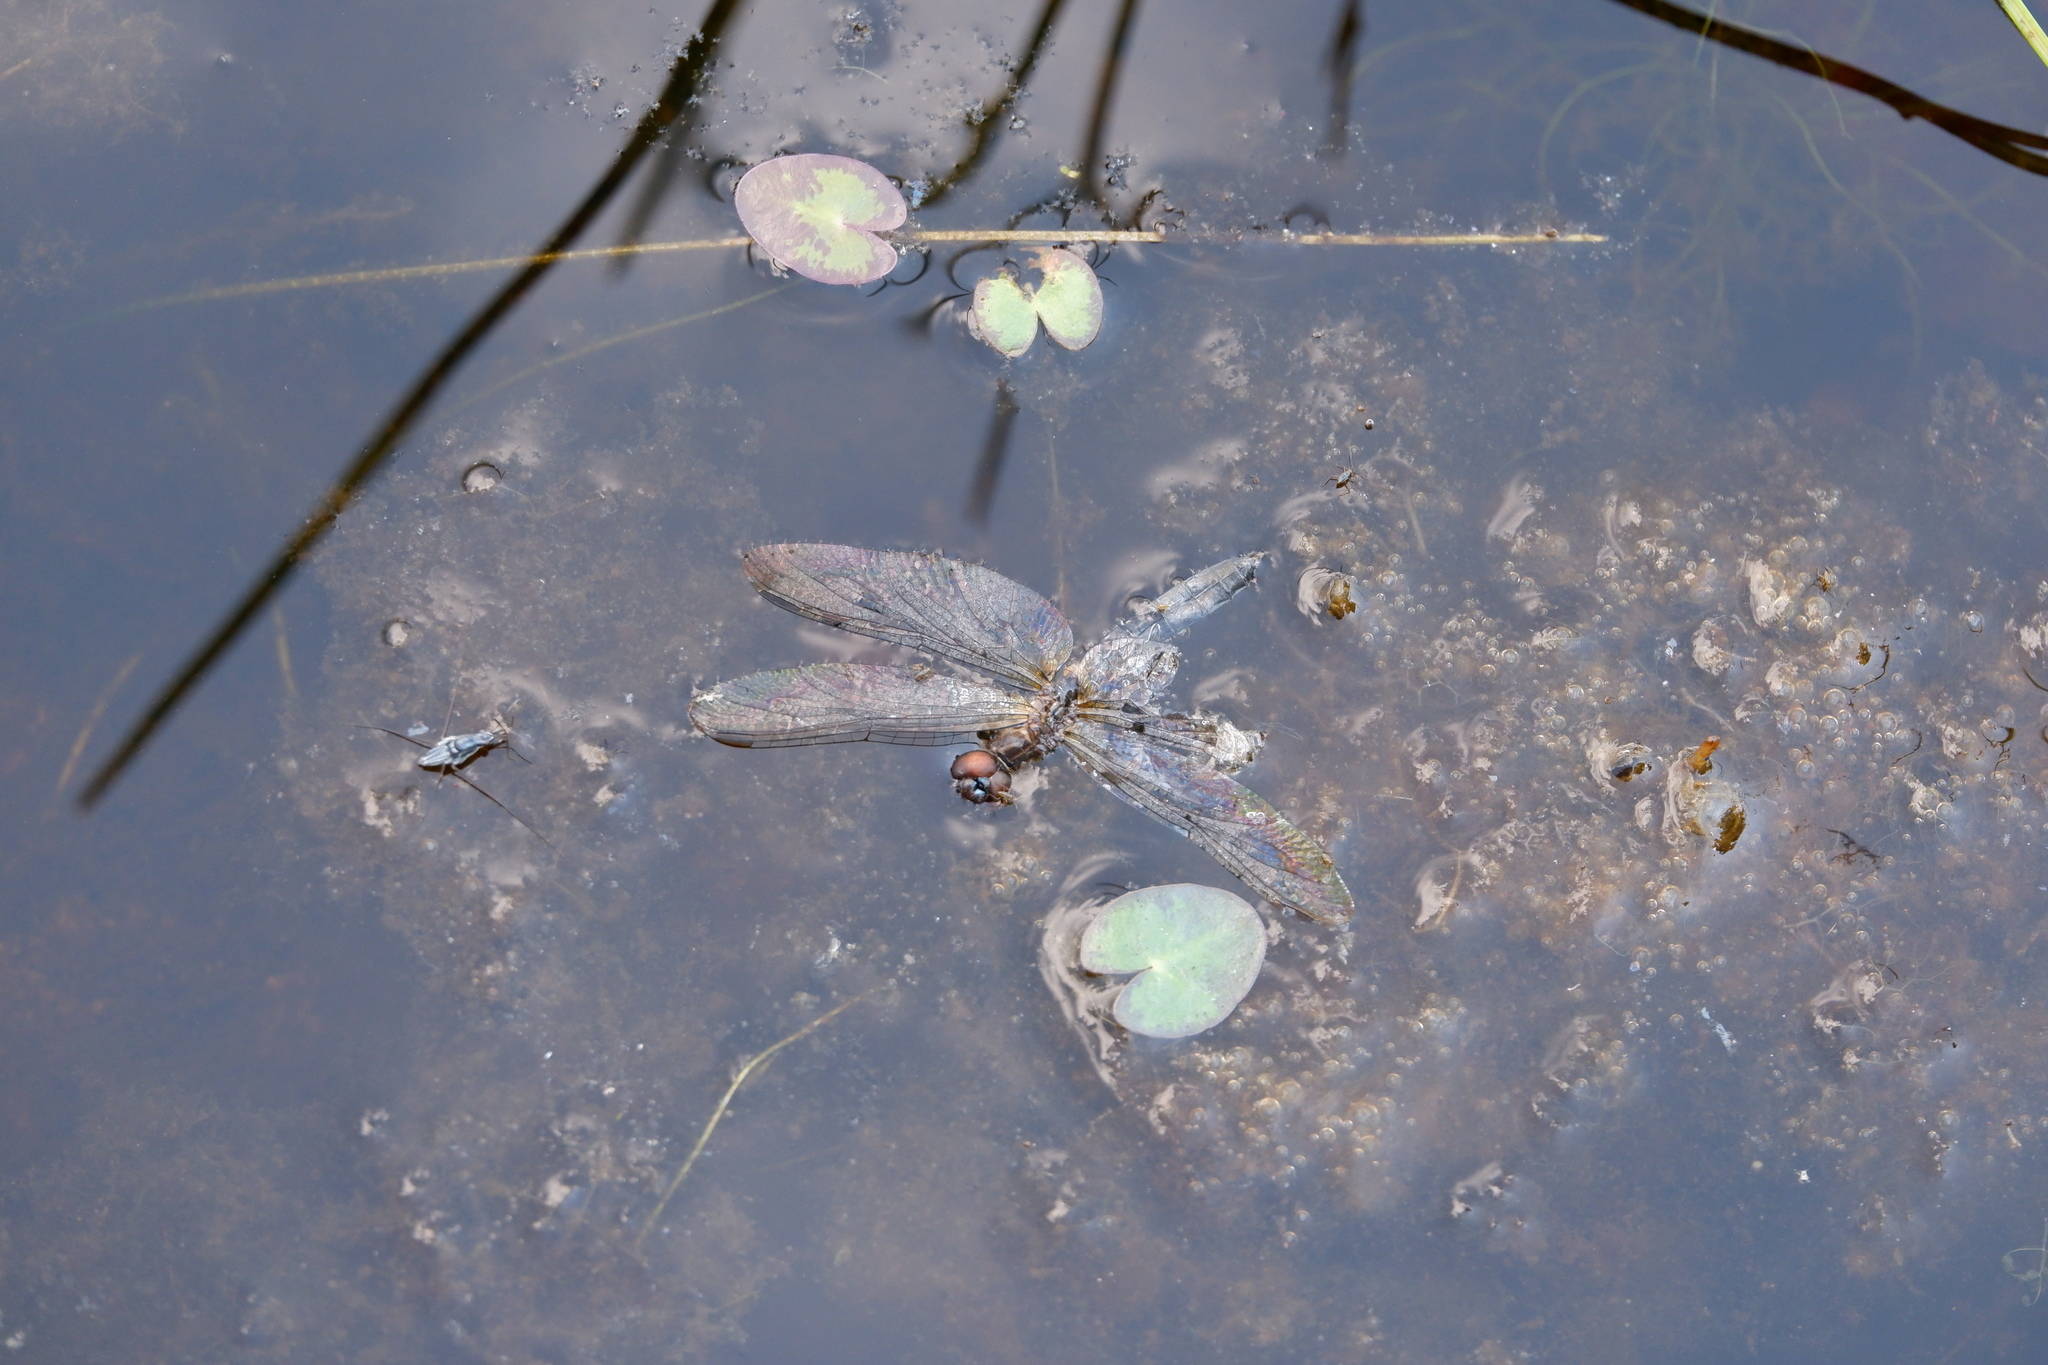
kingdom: Animalia
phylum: Arthropoda
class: Insecta
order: Odonata
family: Libellulidae
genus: Pachydiplax
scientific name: Pachydiplax longipennis
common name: Blue dasher
